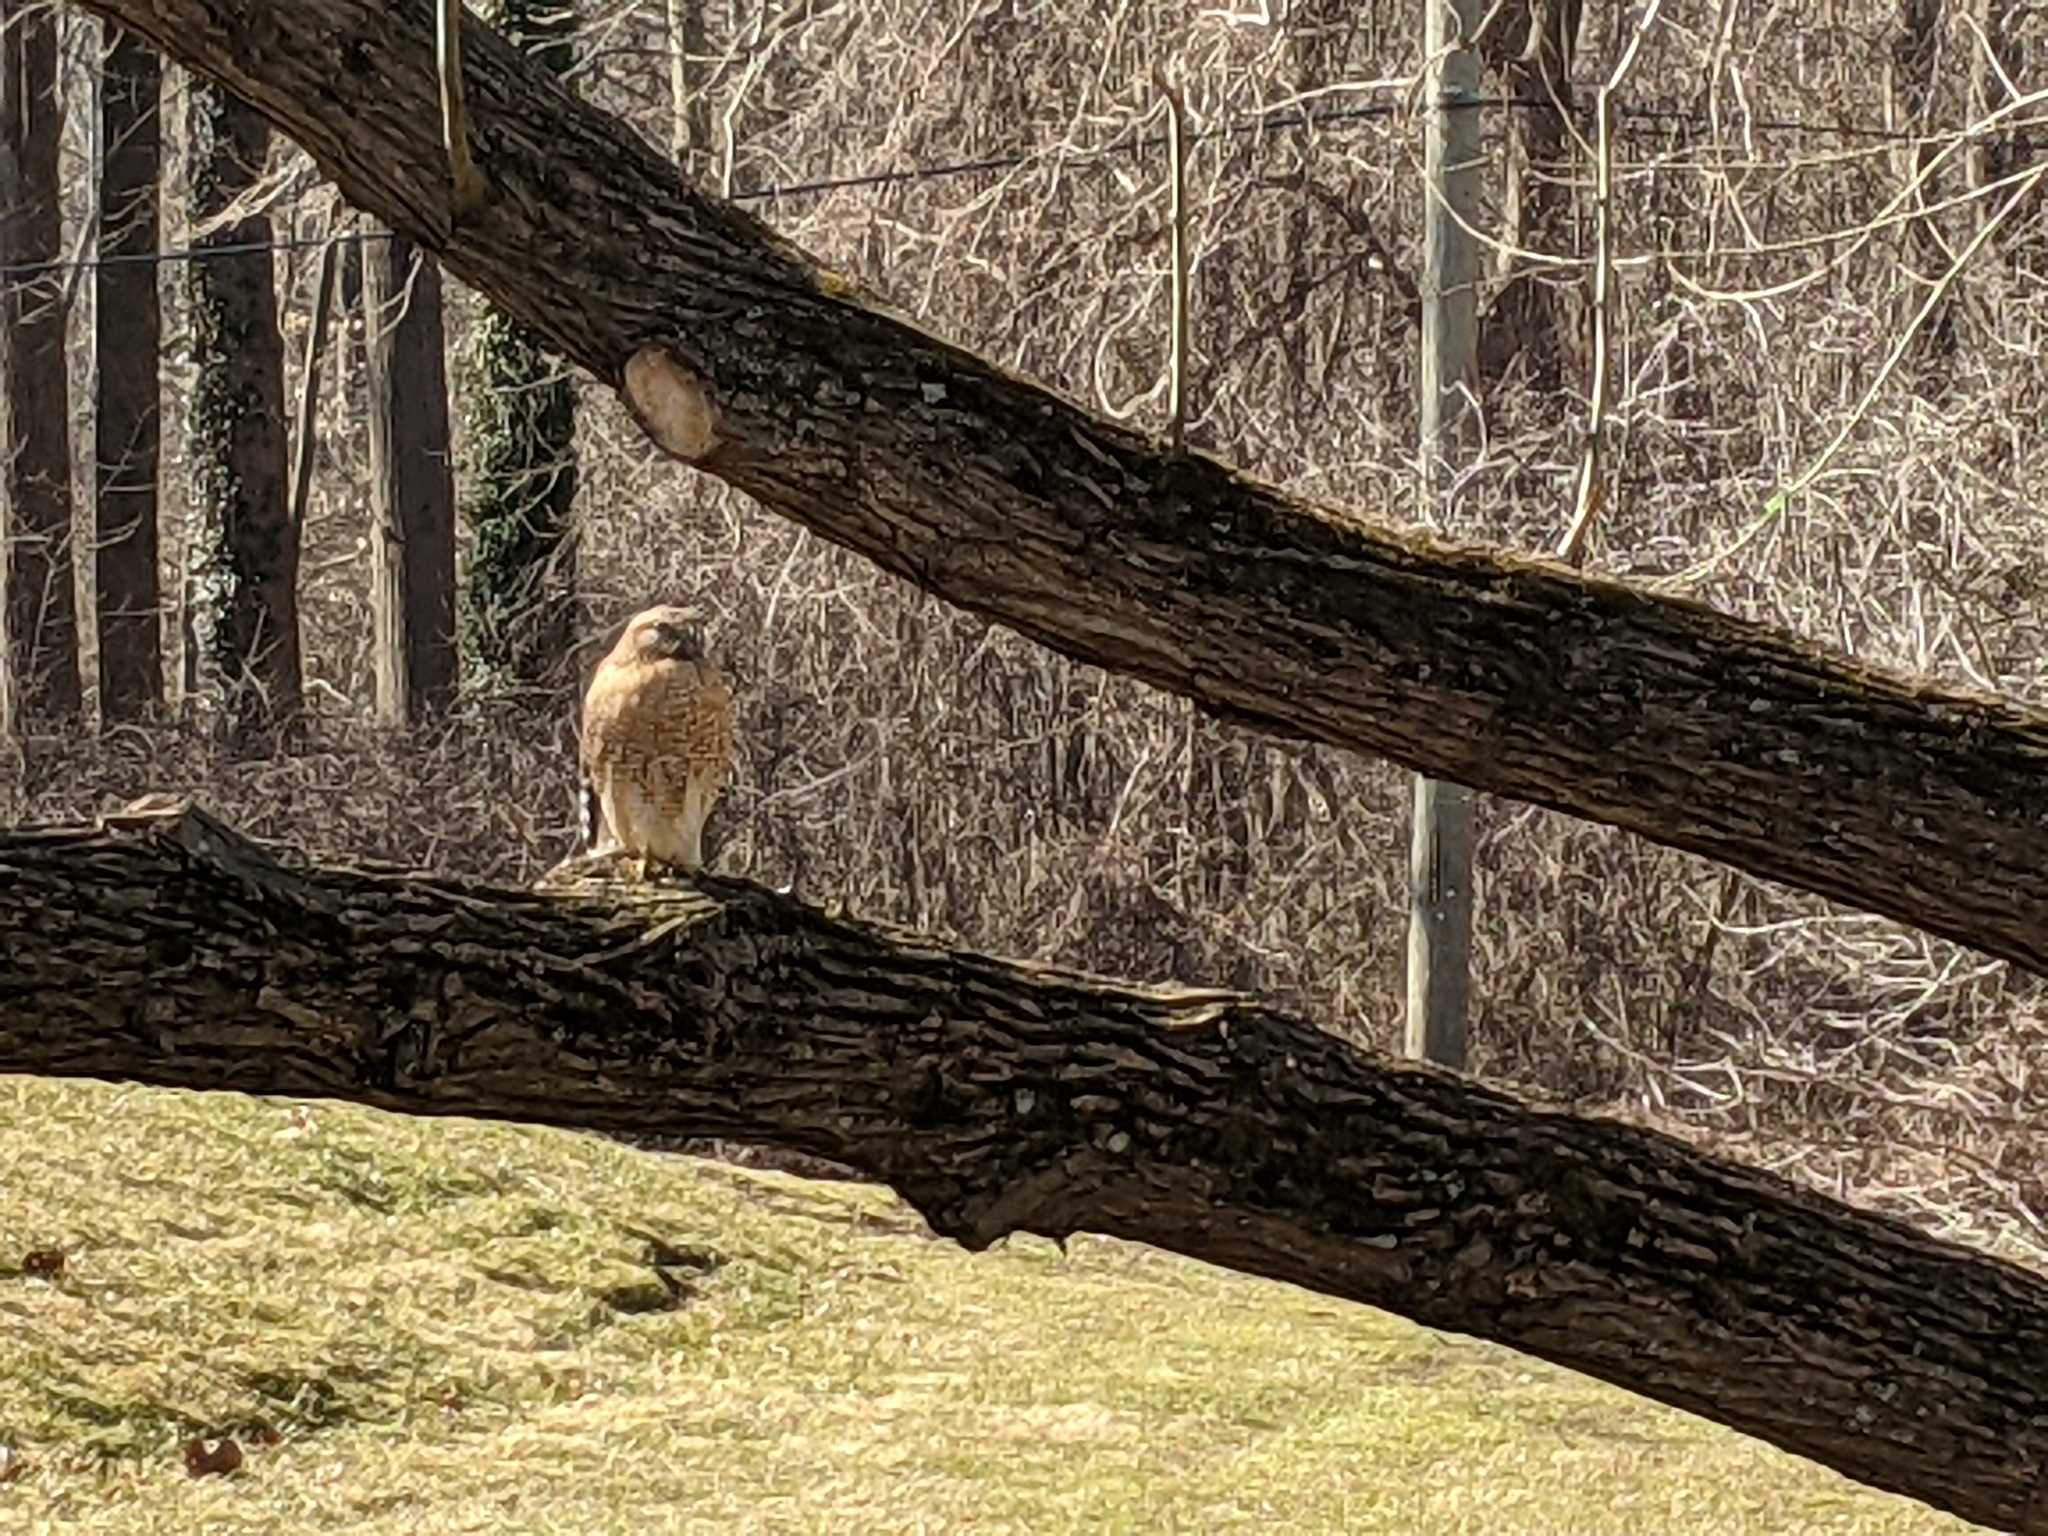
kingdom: Animalia
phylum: Chordata
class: Aves
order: Accipitriformes
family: Accipitridae
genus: Buteo
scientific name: Buteo lineatus
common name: Red-shouldered hawk
